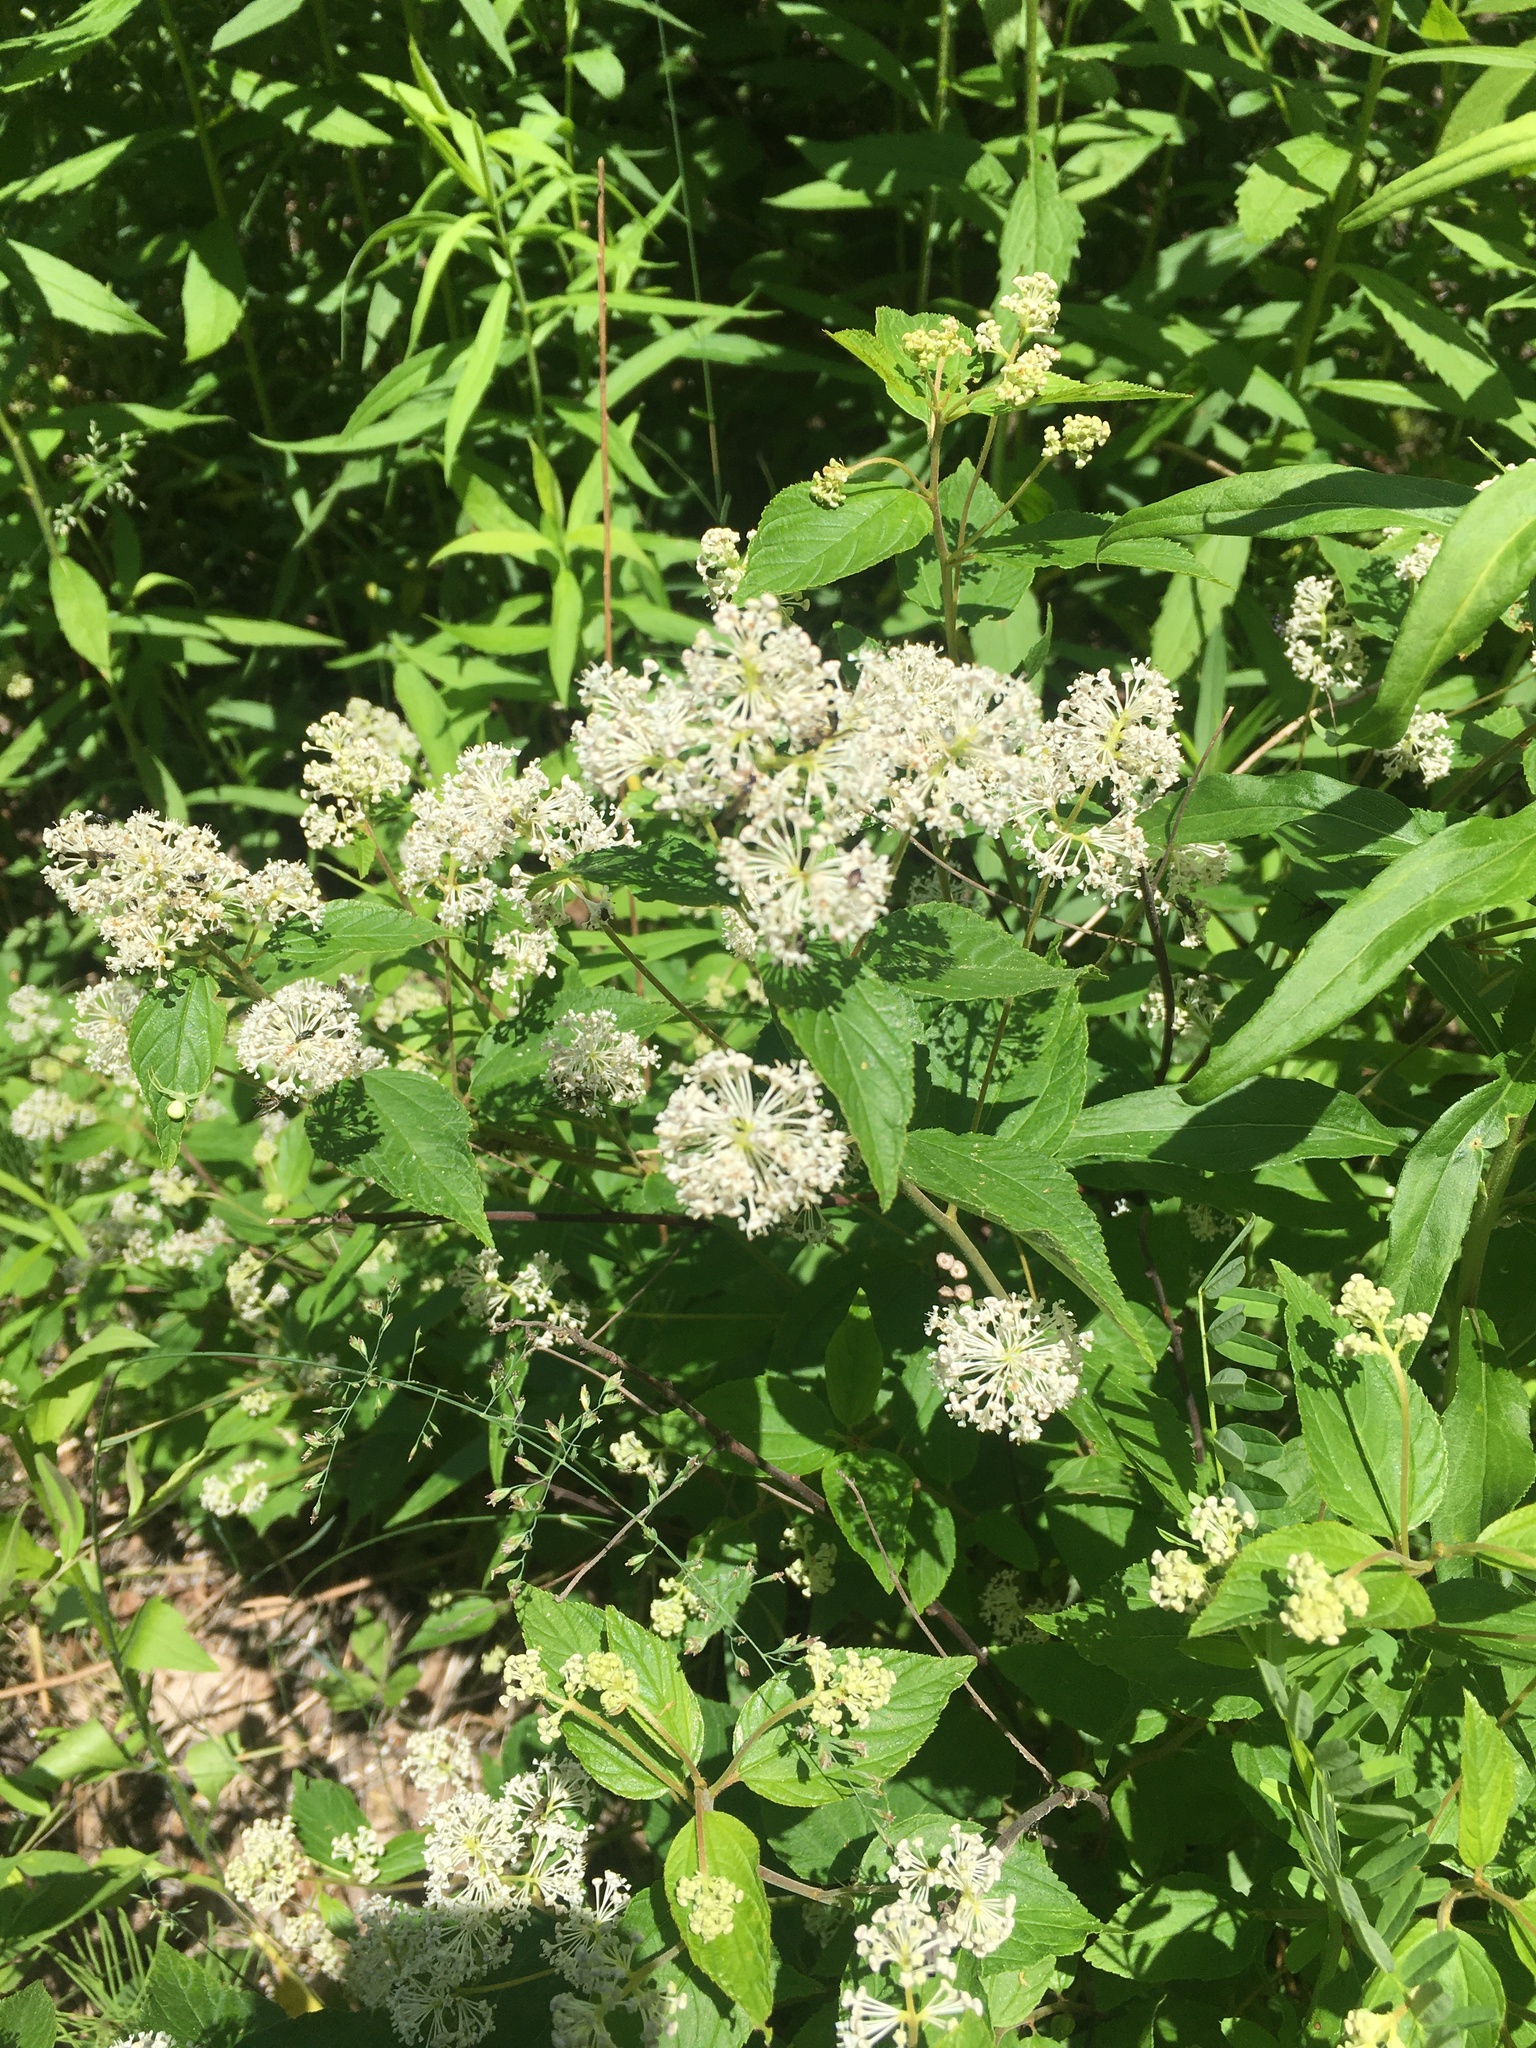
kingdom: Plantae
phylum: Tracheophyta
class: Magnoliopsida
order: Rosales
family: Rhamnaceae
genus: Ceanothus
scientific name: Ceanothus americanus
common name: Redroot
